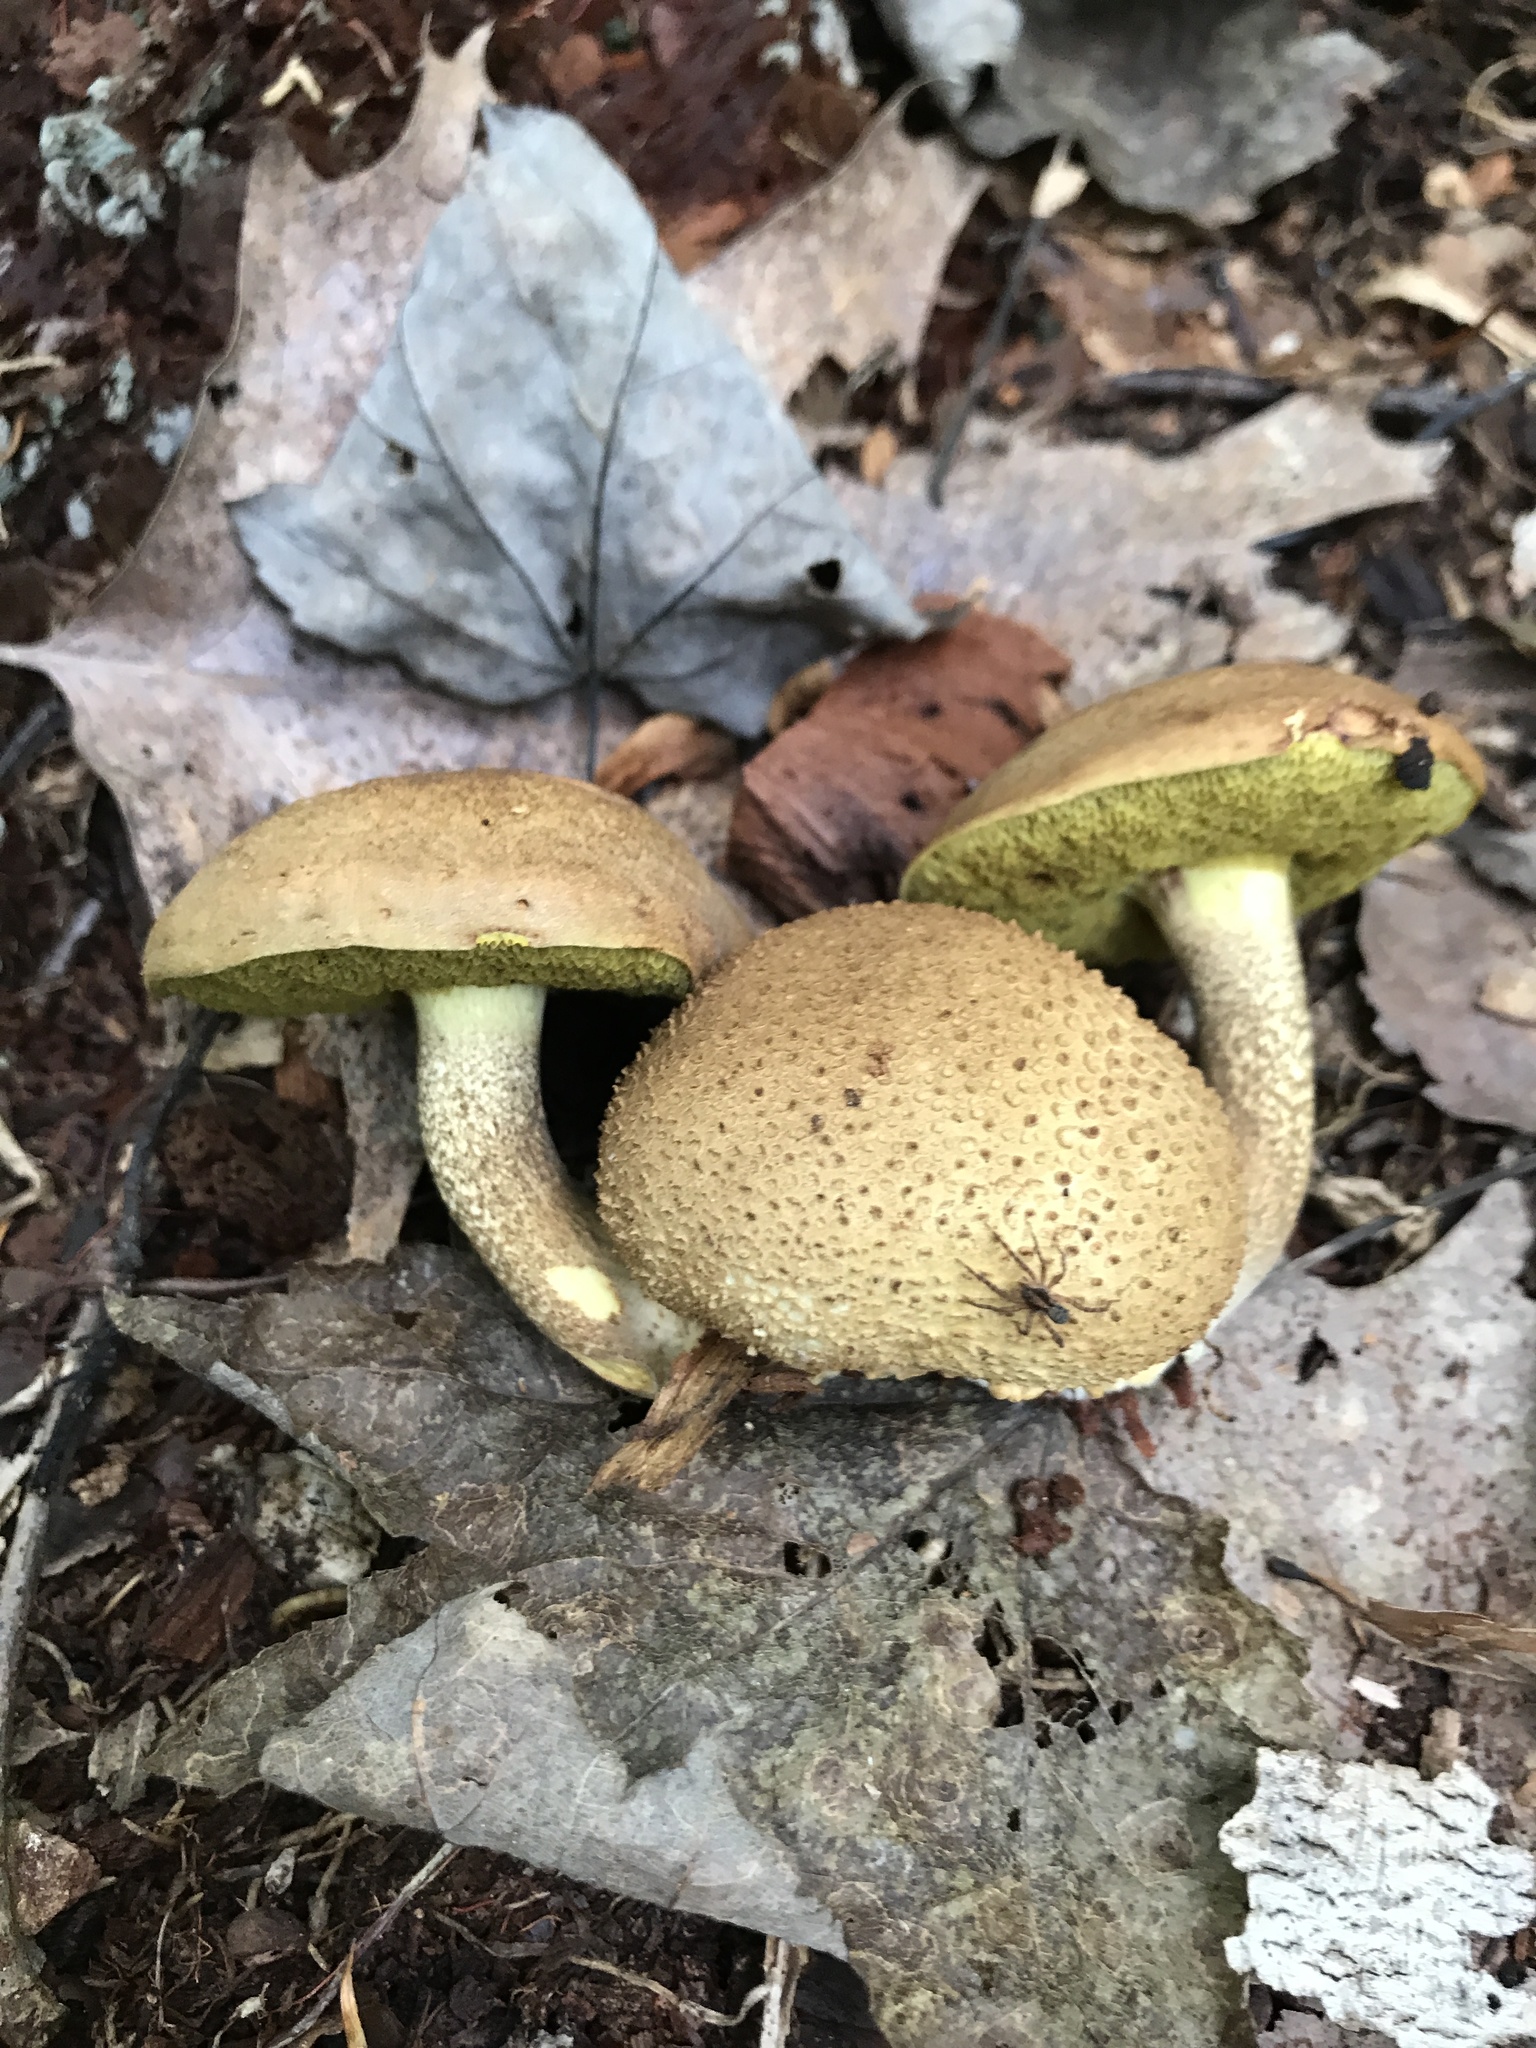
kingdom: Fungi
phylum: Basidiomycota
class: Agaricomycetes
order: Boletales
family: Boletaceae
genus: Pseudoboletus
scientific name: Pseudoboletus parasiticus
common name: Parasitic bolete
